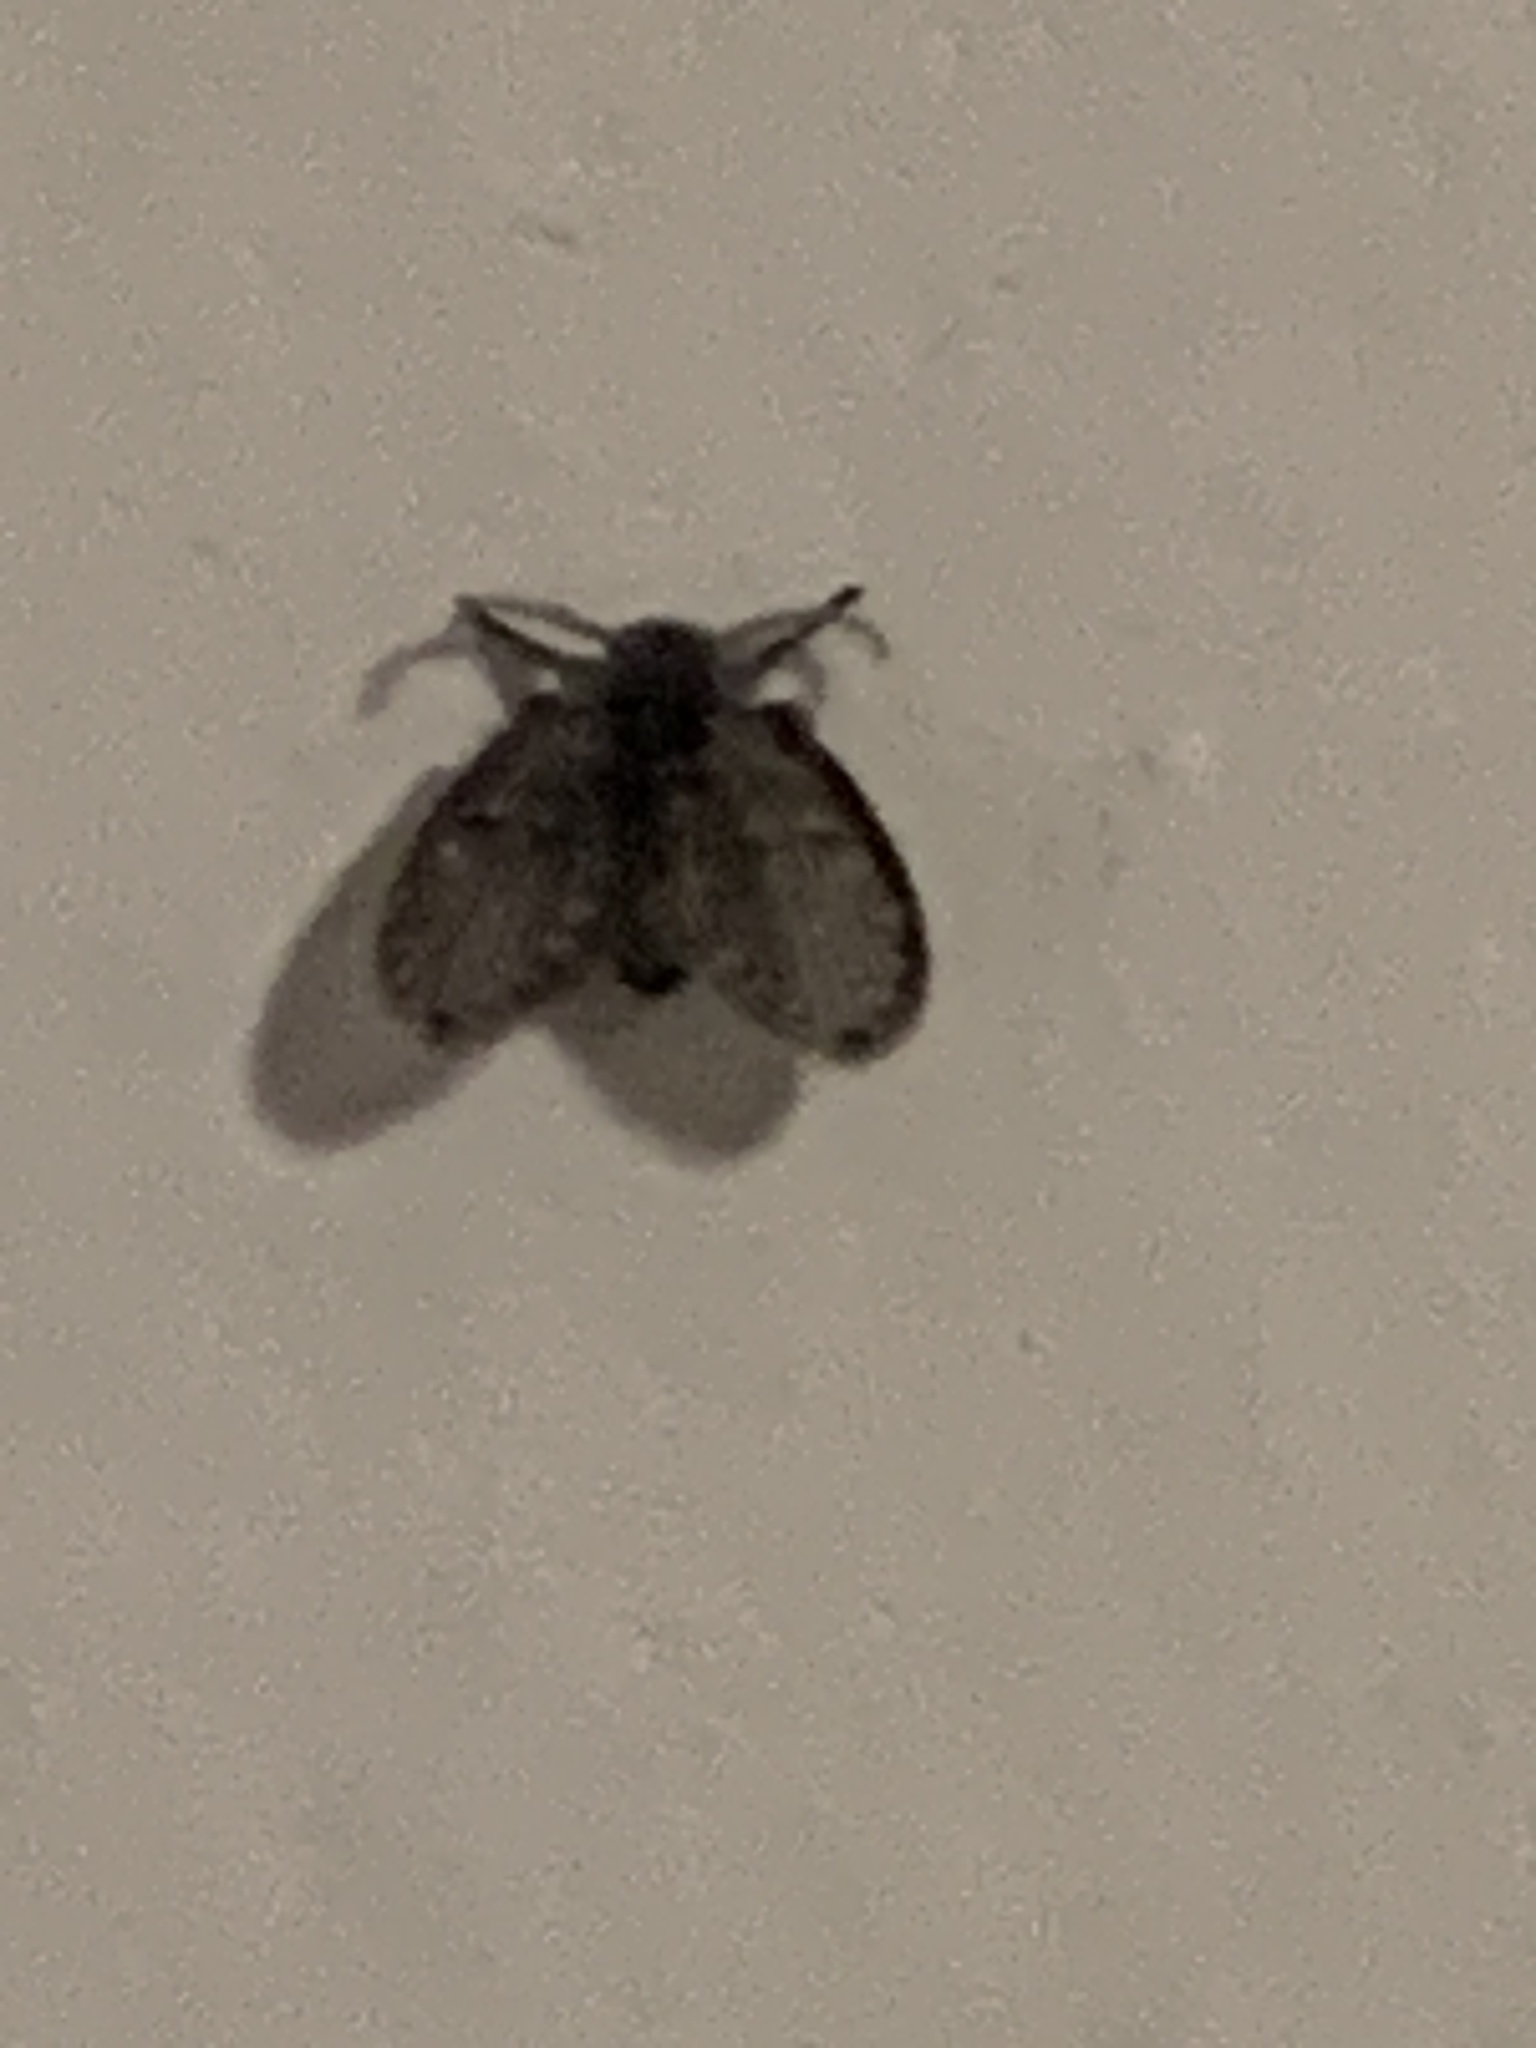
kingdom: Animalia
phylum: Arthropoda
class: Insecta
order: Diptera
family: Psychodidae
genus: Clogmia
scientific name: Clogmia albipunctatus
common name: White-spotted moth fly
